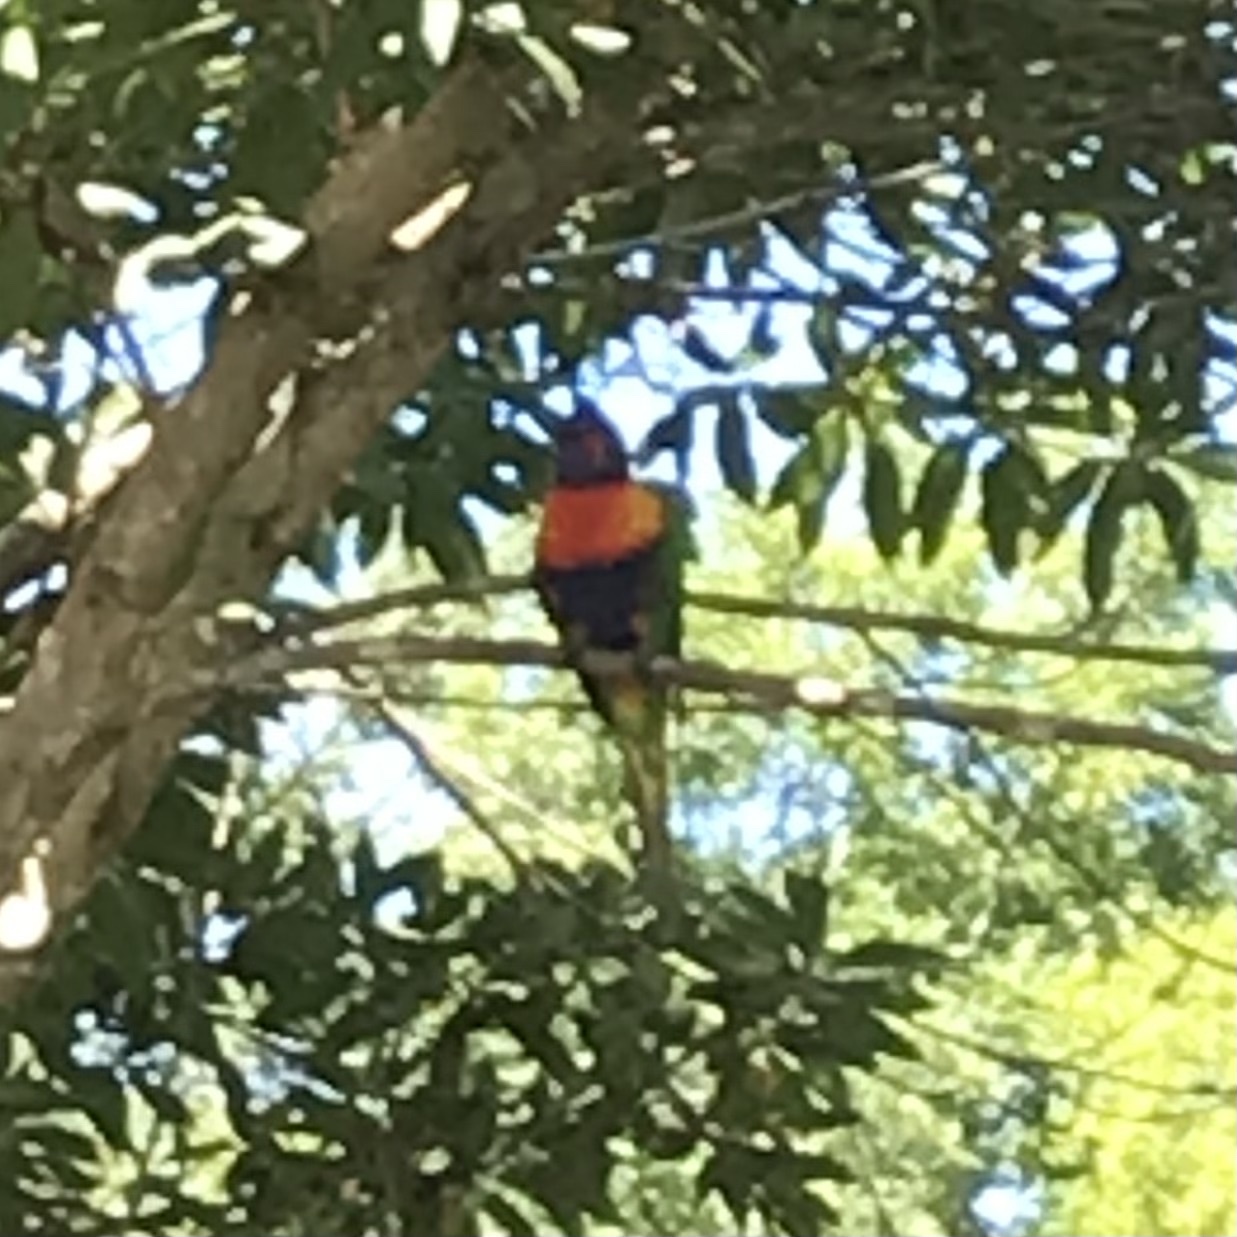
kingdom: Animalia
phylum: Chordata
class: Aves
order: Psittaciformes
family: Psittacidae
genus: Trichoglossus
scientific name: Trichoglossus haematodus
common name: Coconut lorikeet
